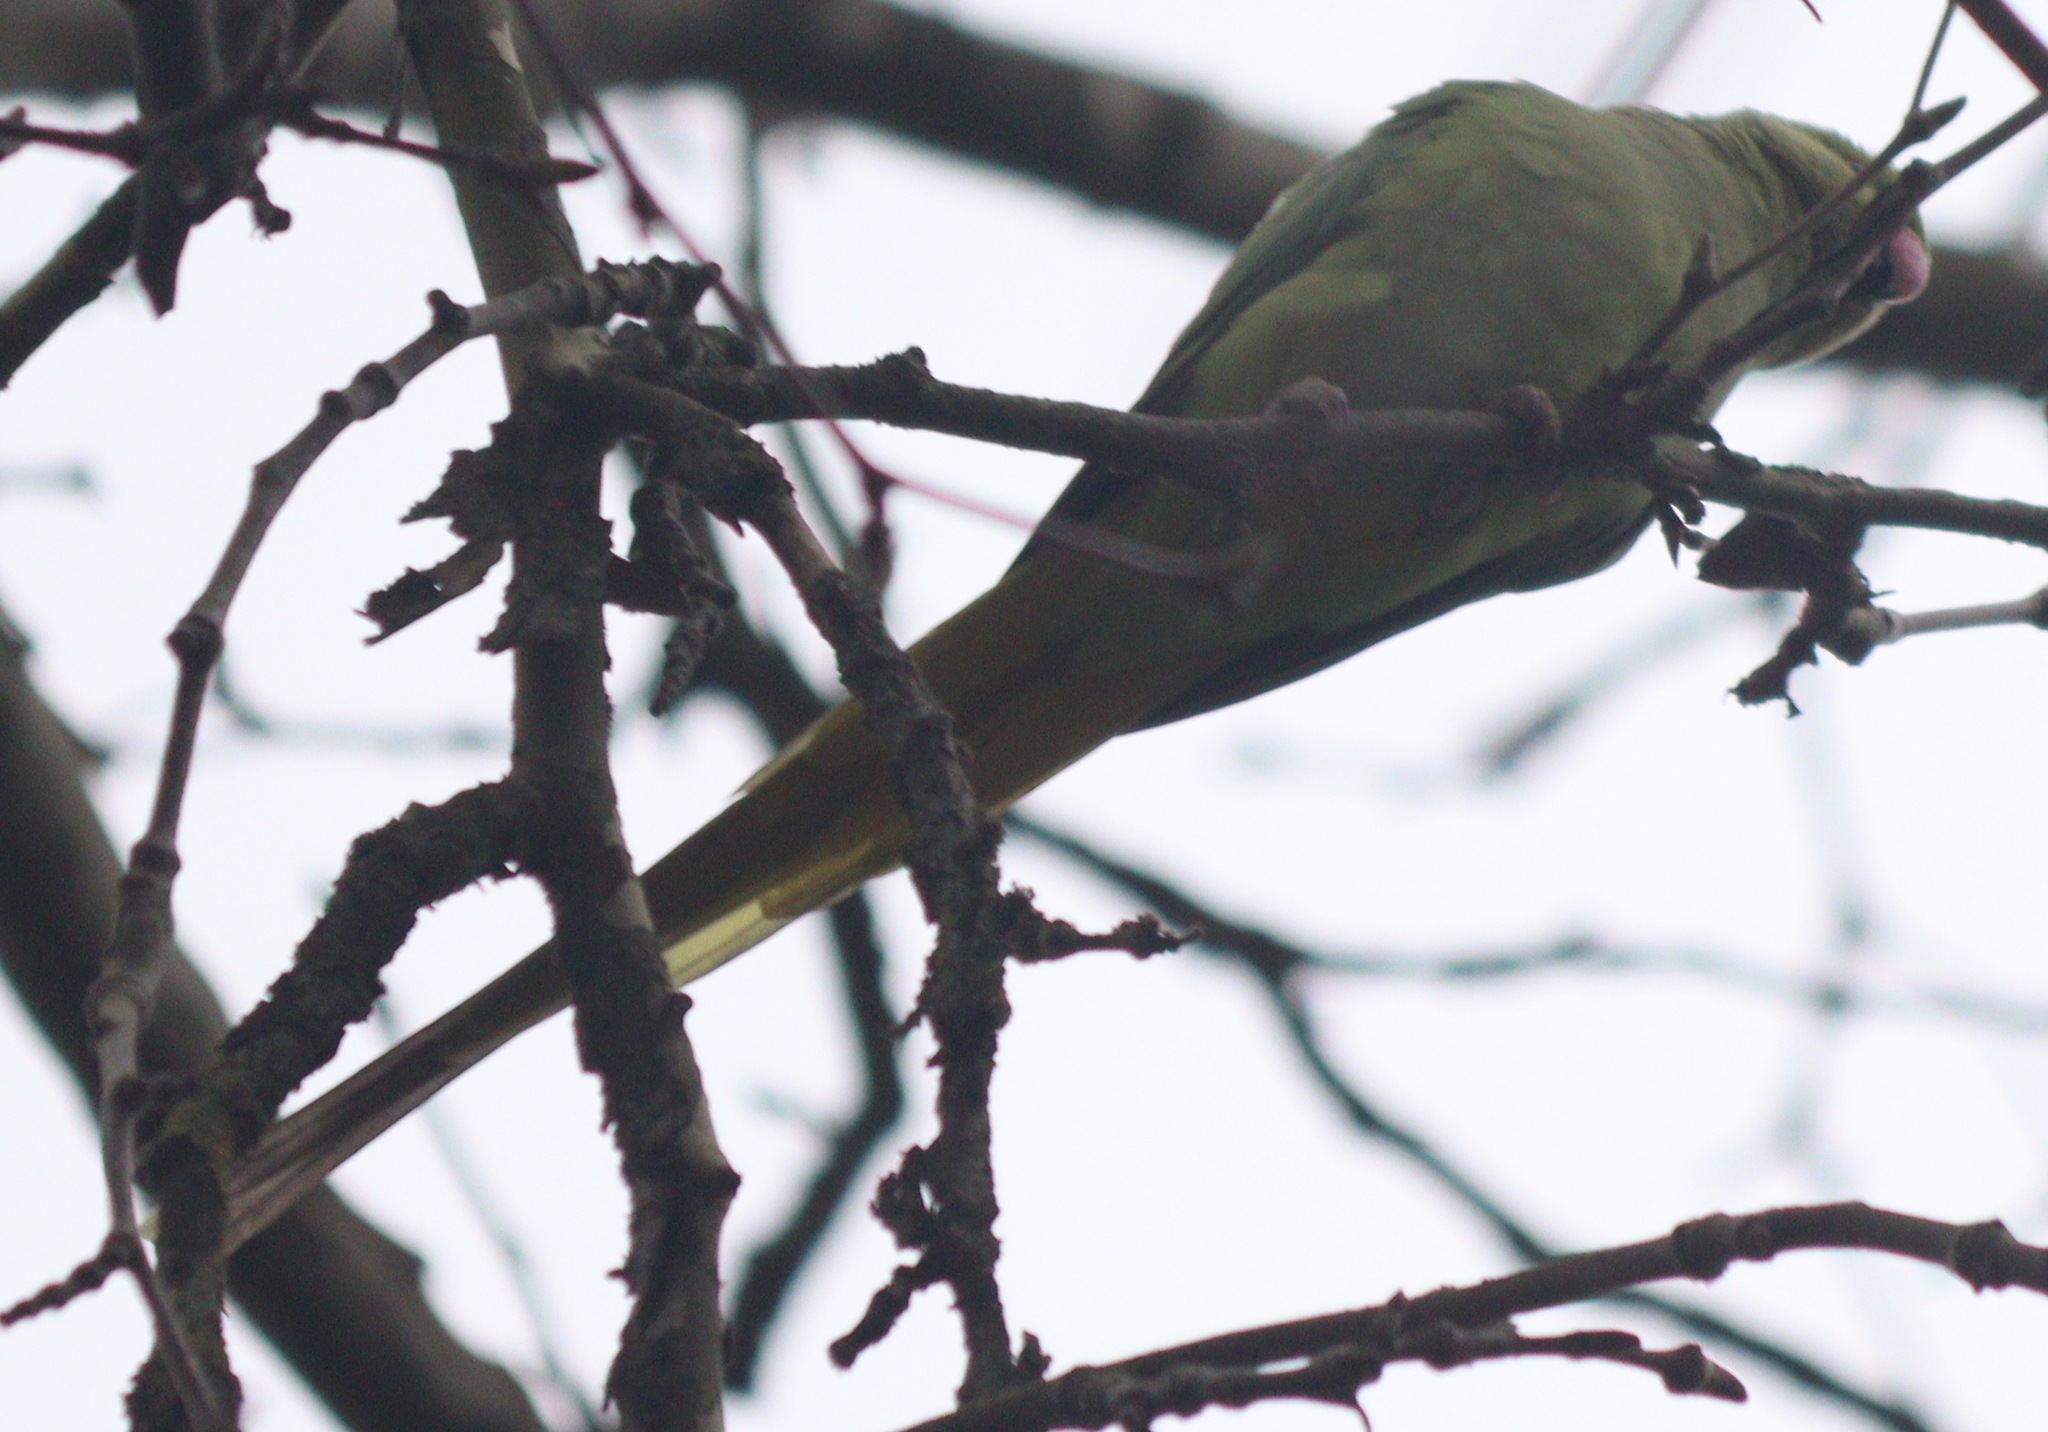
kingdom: Animalia
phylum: Chordata
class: Aves
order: Psittaciformes
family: Psittacidae
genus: Psittacula
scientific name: Psittacula krameri
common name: Rose-ringed parakeet
